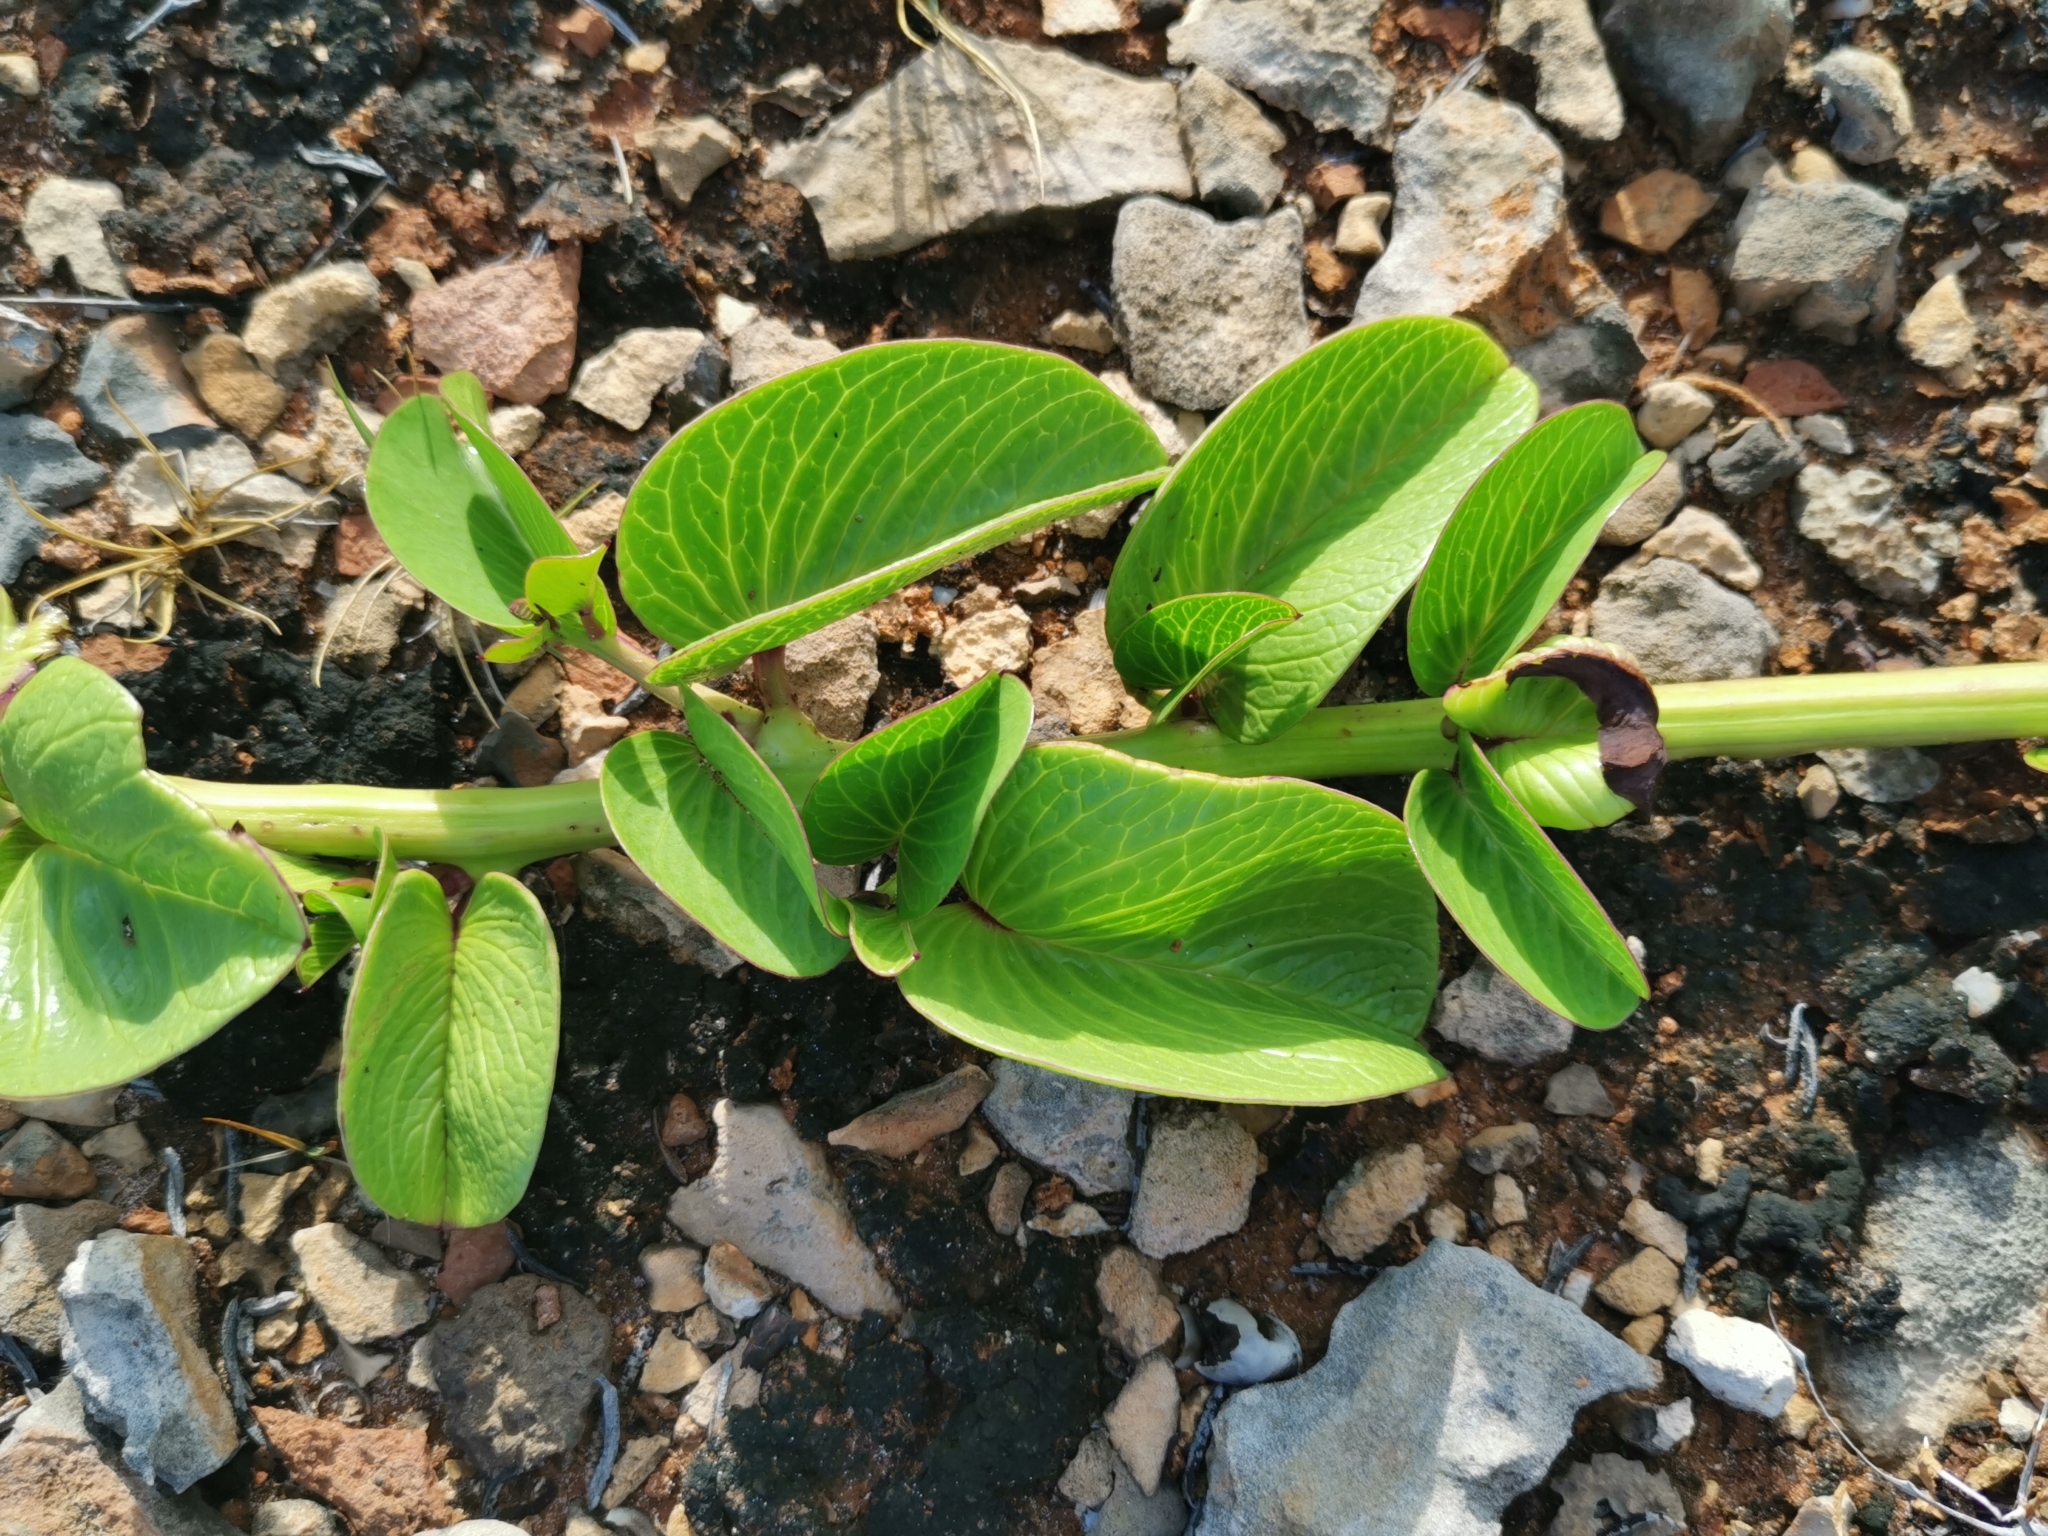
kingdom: Plantae
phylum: Tracheophyta
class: Magnoliopsida
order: Solanales
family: Convolvulaceae
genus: Ipomoea
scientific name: Ipomoea pes-caprae
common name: Beach morning glory
